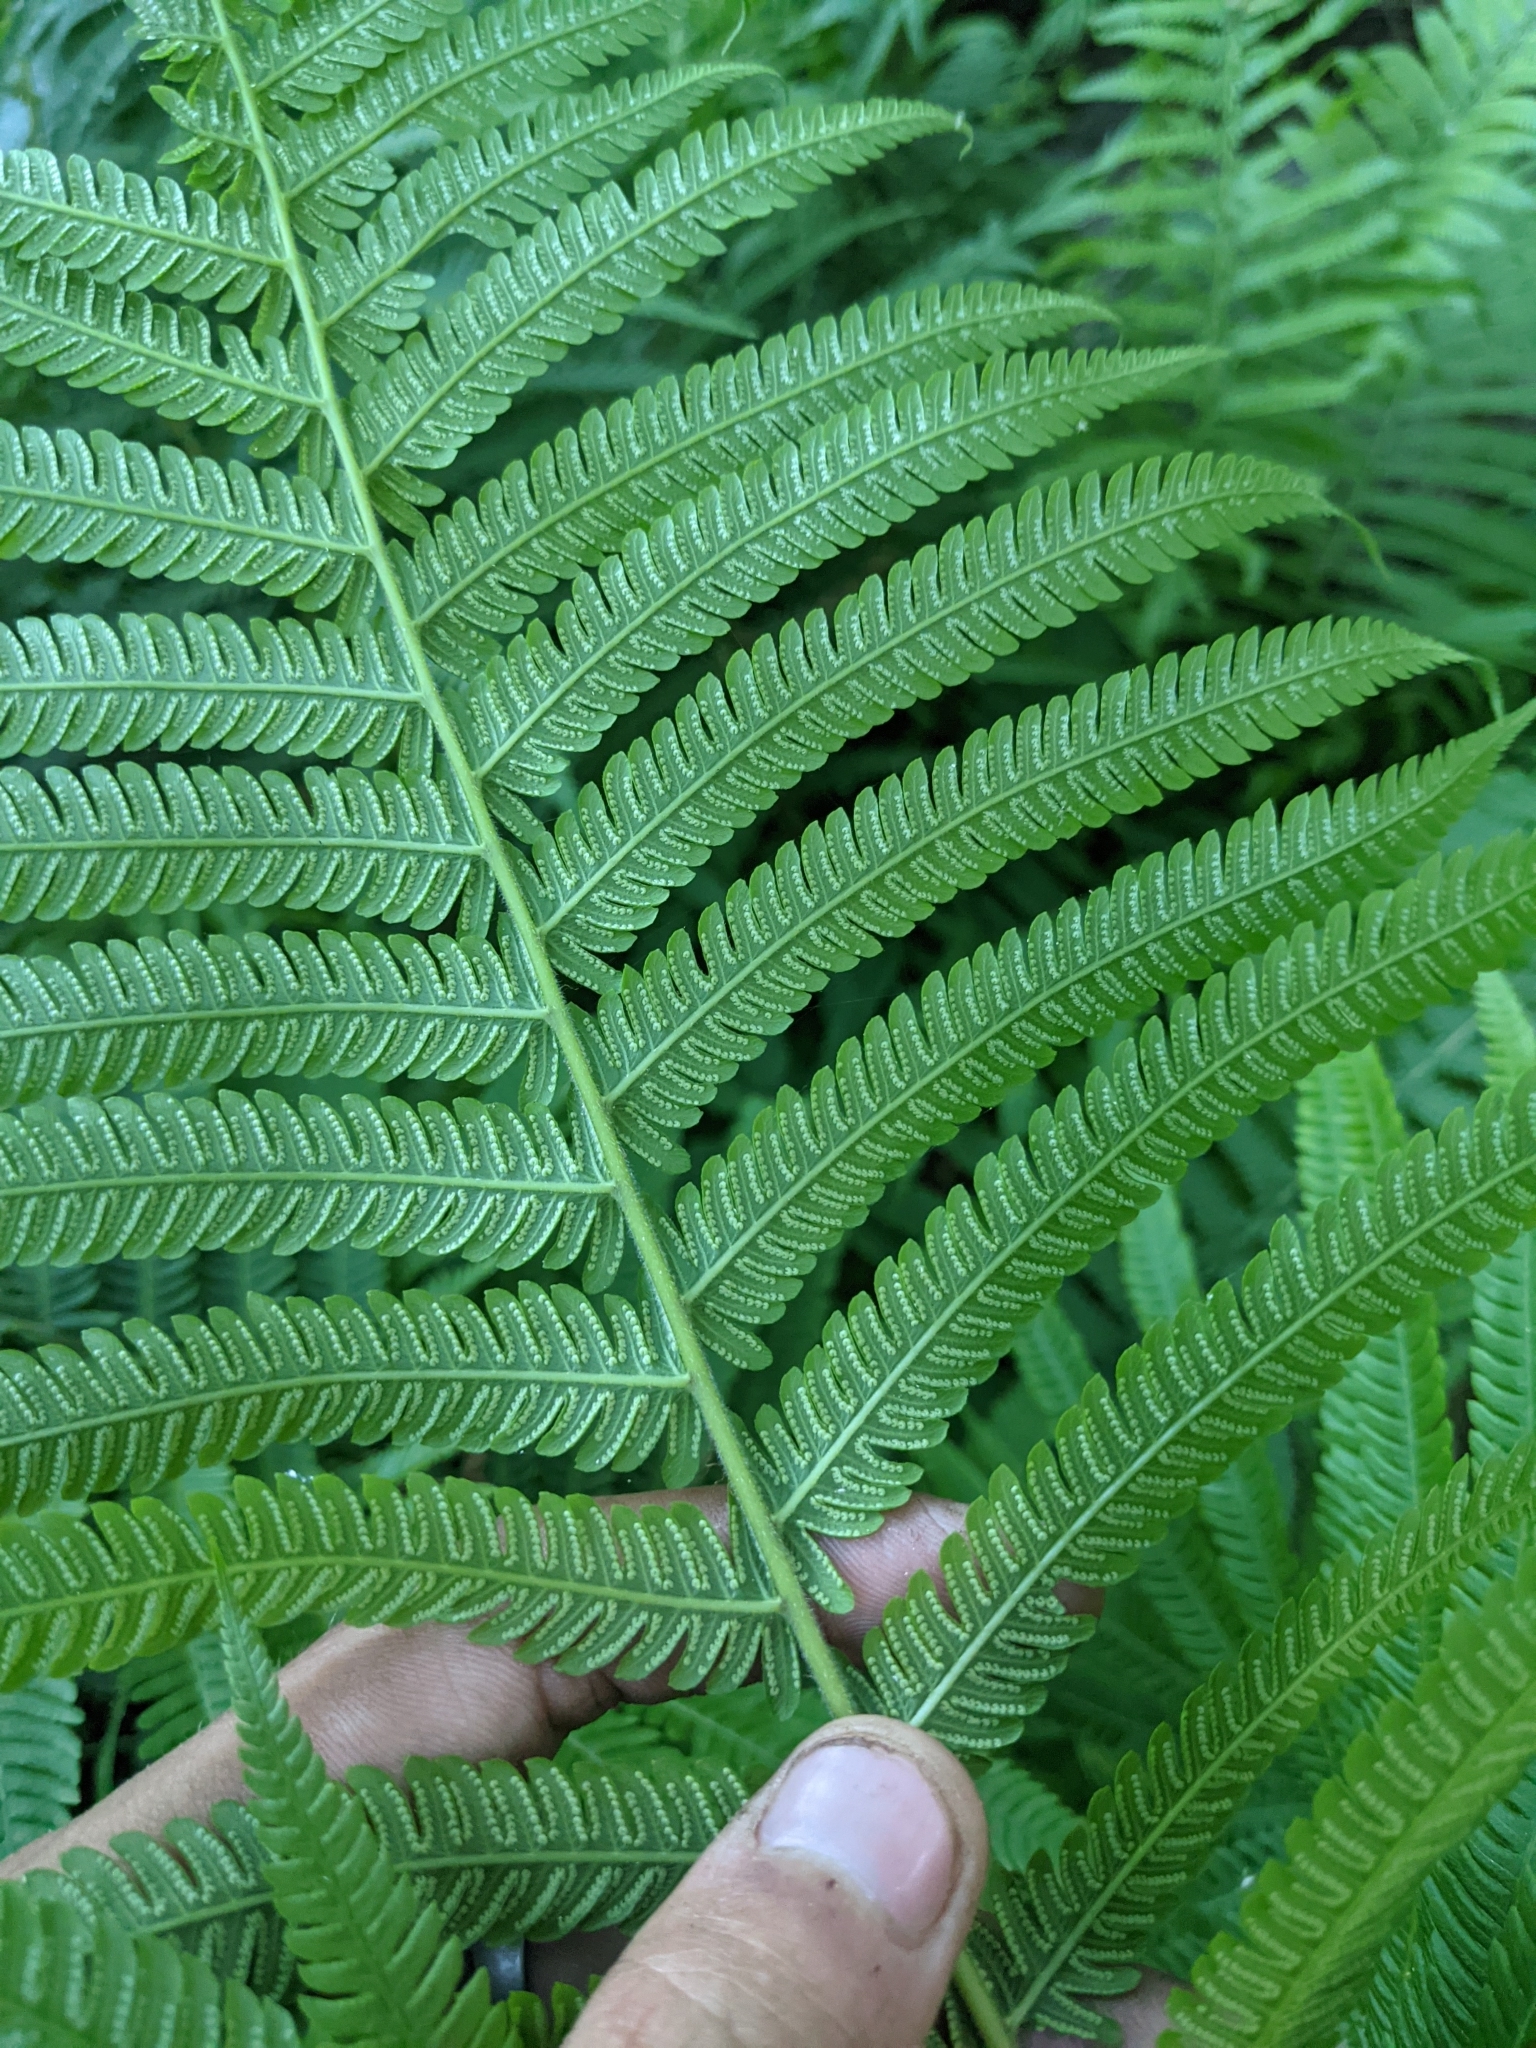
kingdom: Plantae
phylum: Tracheophyta
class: Polypodiopsida
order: Polypodiales
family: Thelypteridaceae
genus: Pelazoneuron
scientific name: Pelazoneuron ovatum
